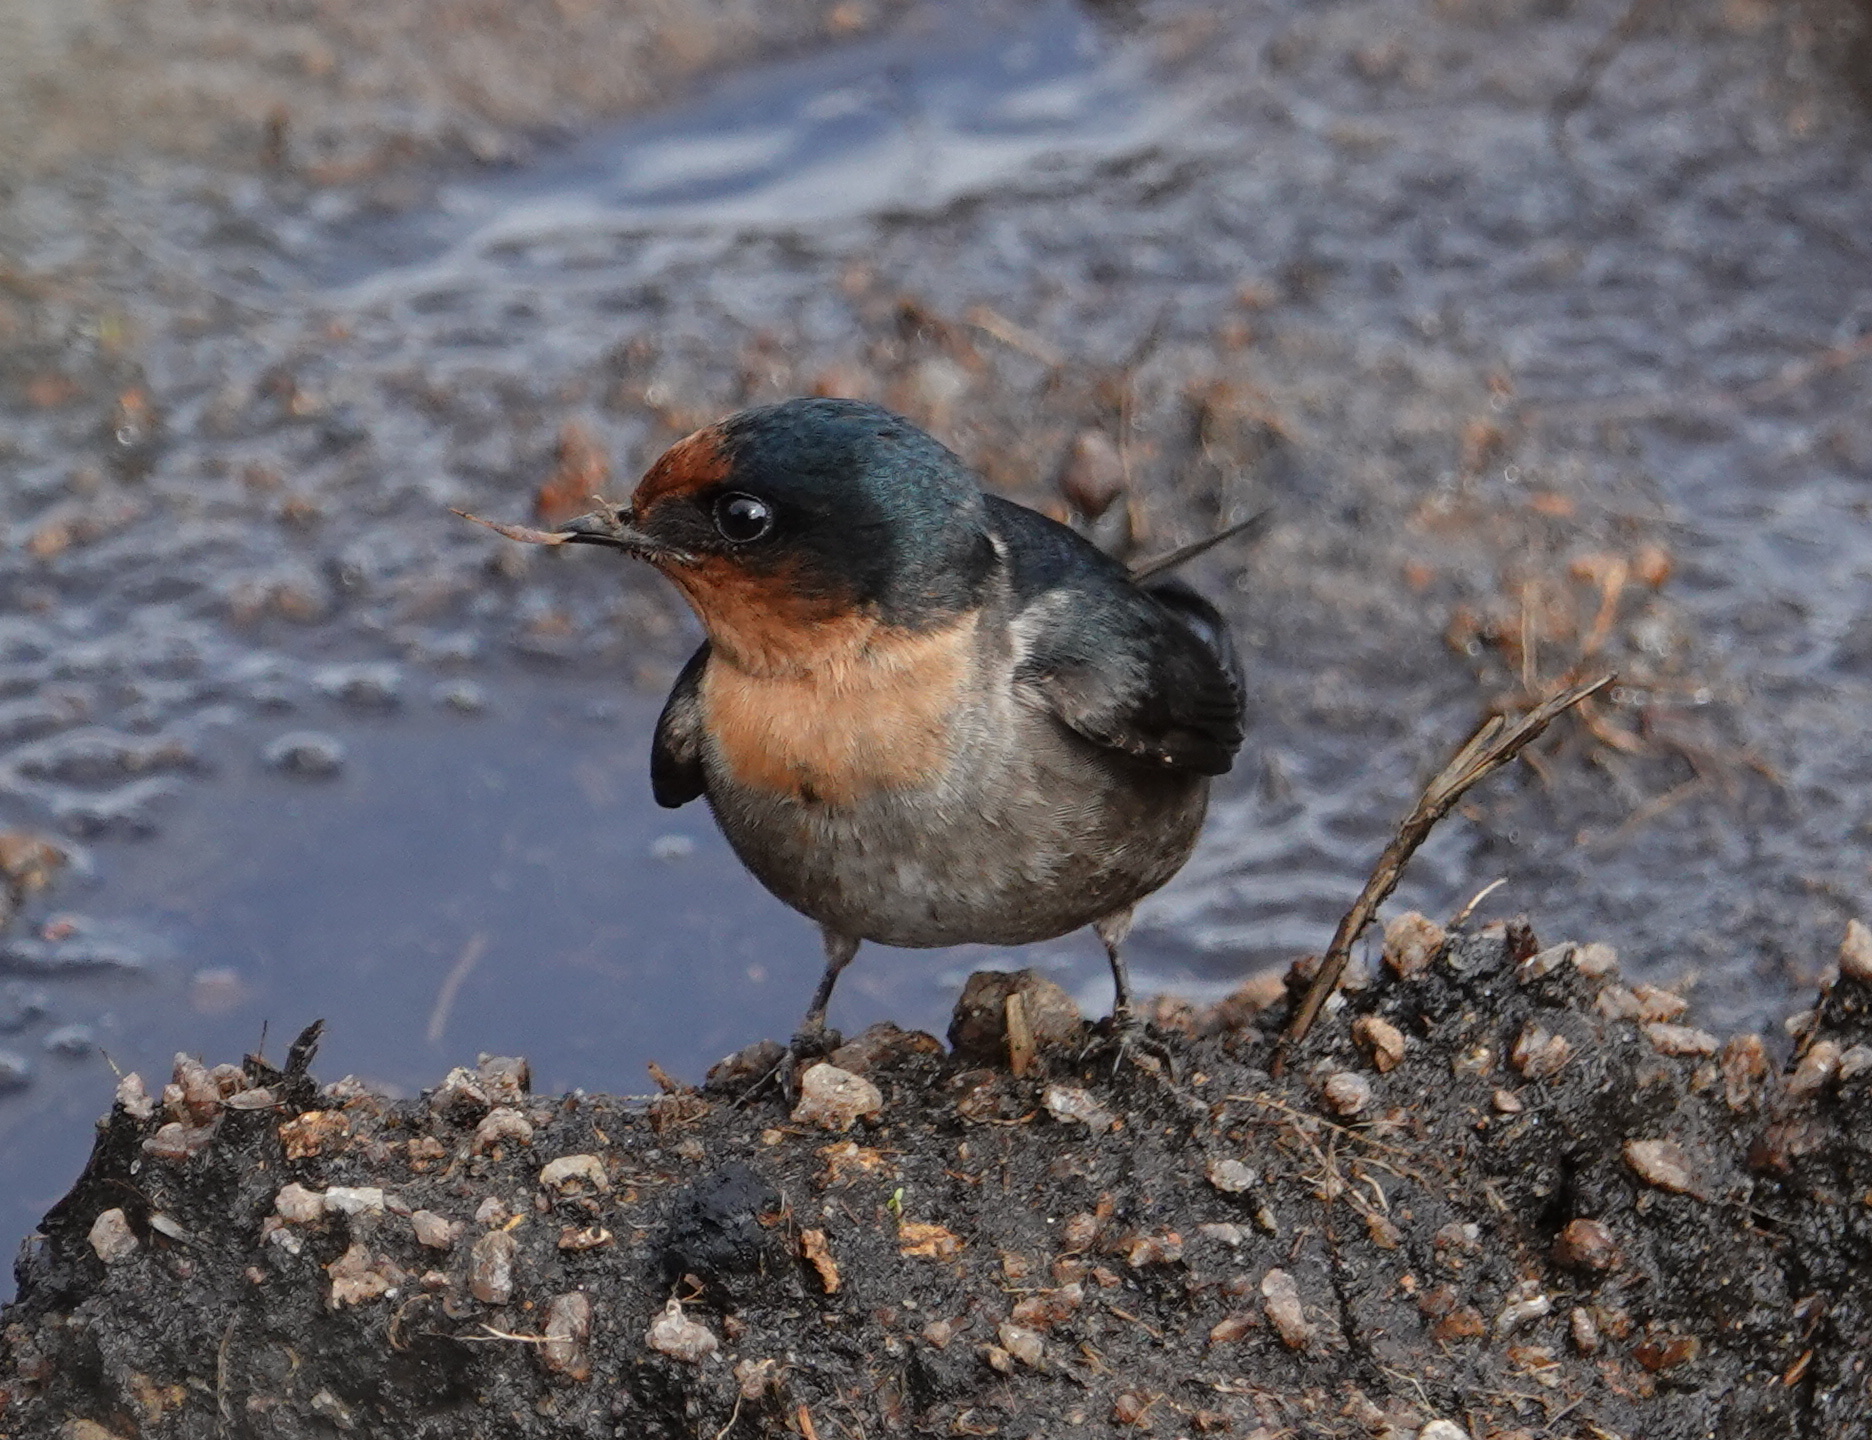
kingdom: Animalia
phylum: Chordata
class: Aves
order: Passeriformes
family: Hirundinidae
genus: Hirundo
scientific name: Hirundo domicola
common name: Hill swallow
